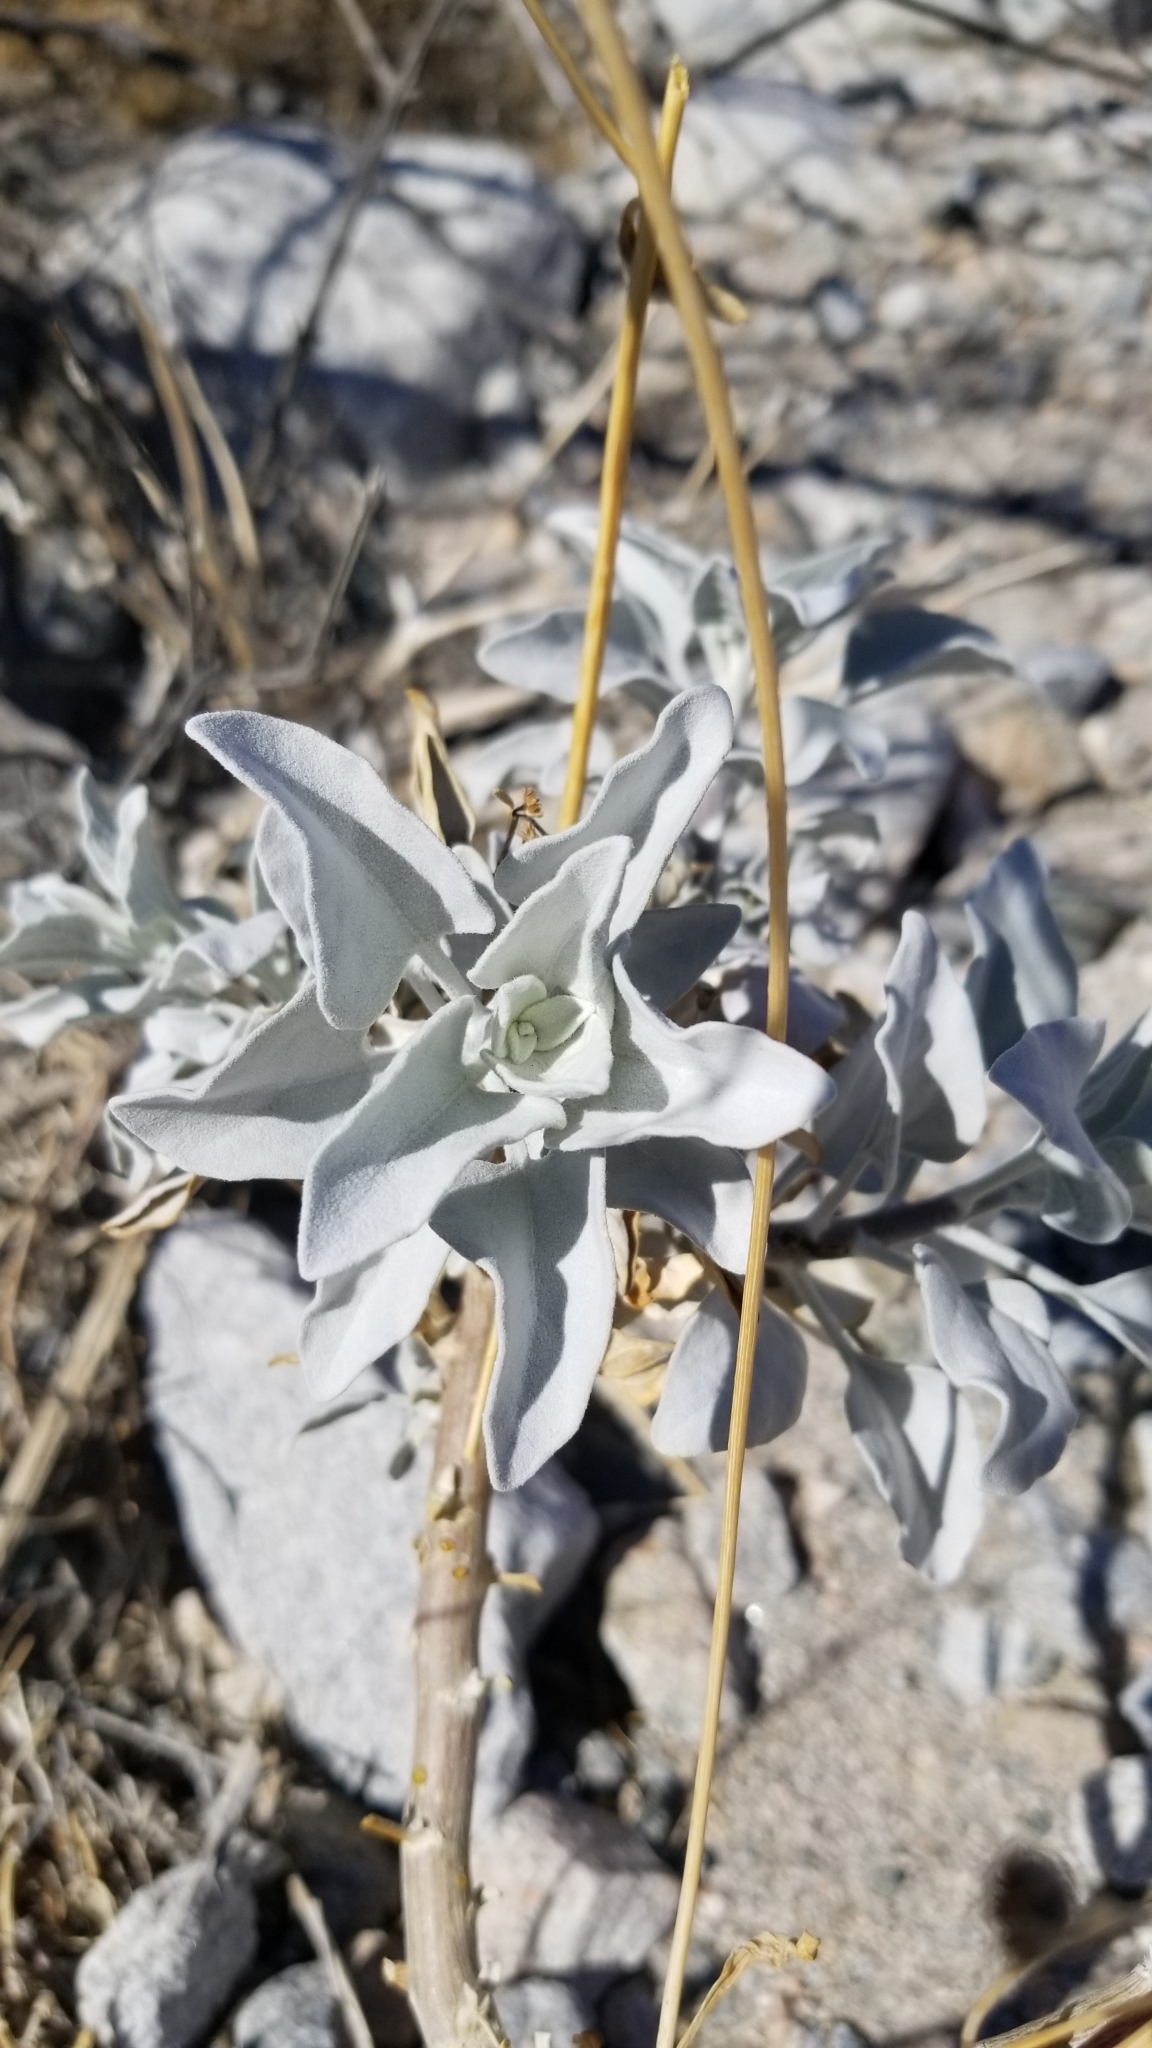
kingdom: Plantae
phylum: Tracheophyta
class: Magnoliopsida
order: Asterales
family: Asteraceae
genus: Encelia
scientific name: Encelia farinosa
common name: Brittlebush
